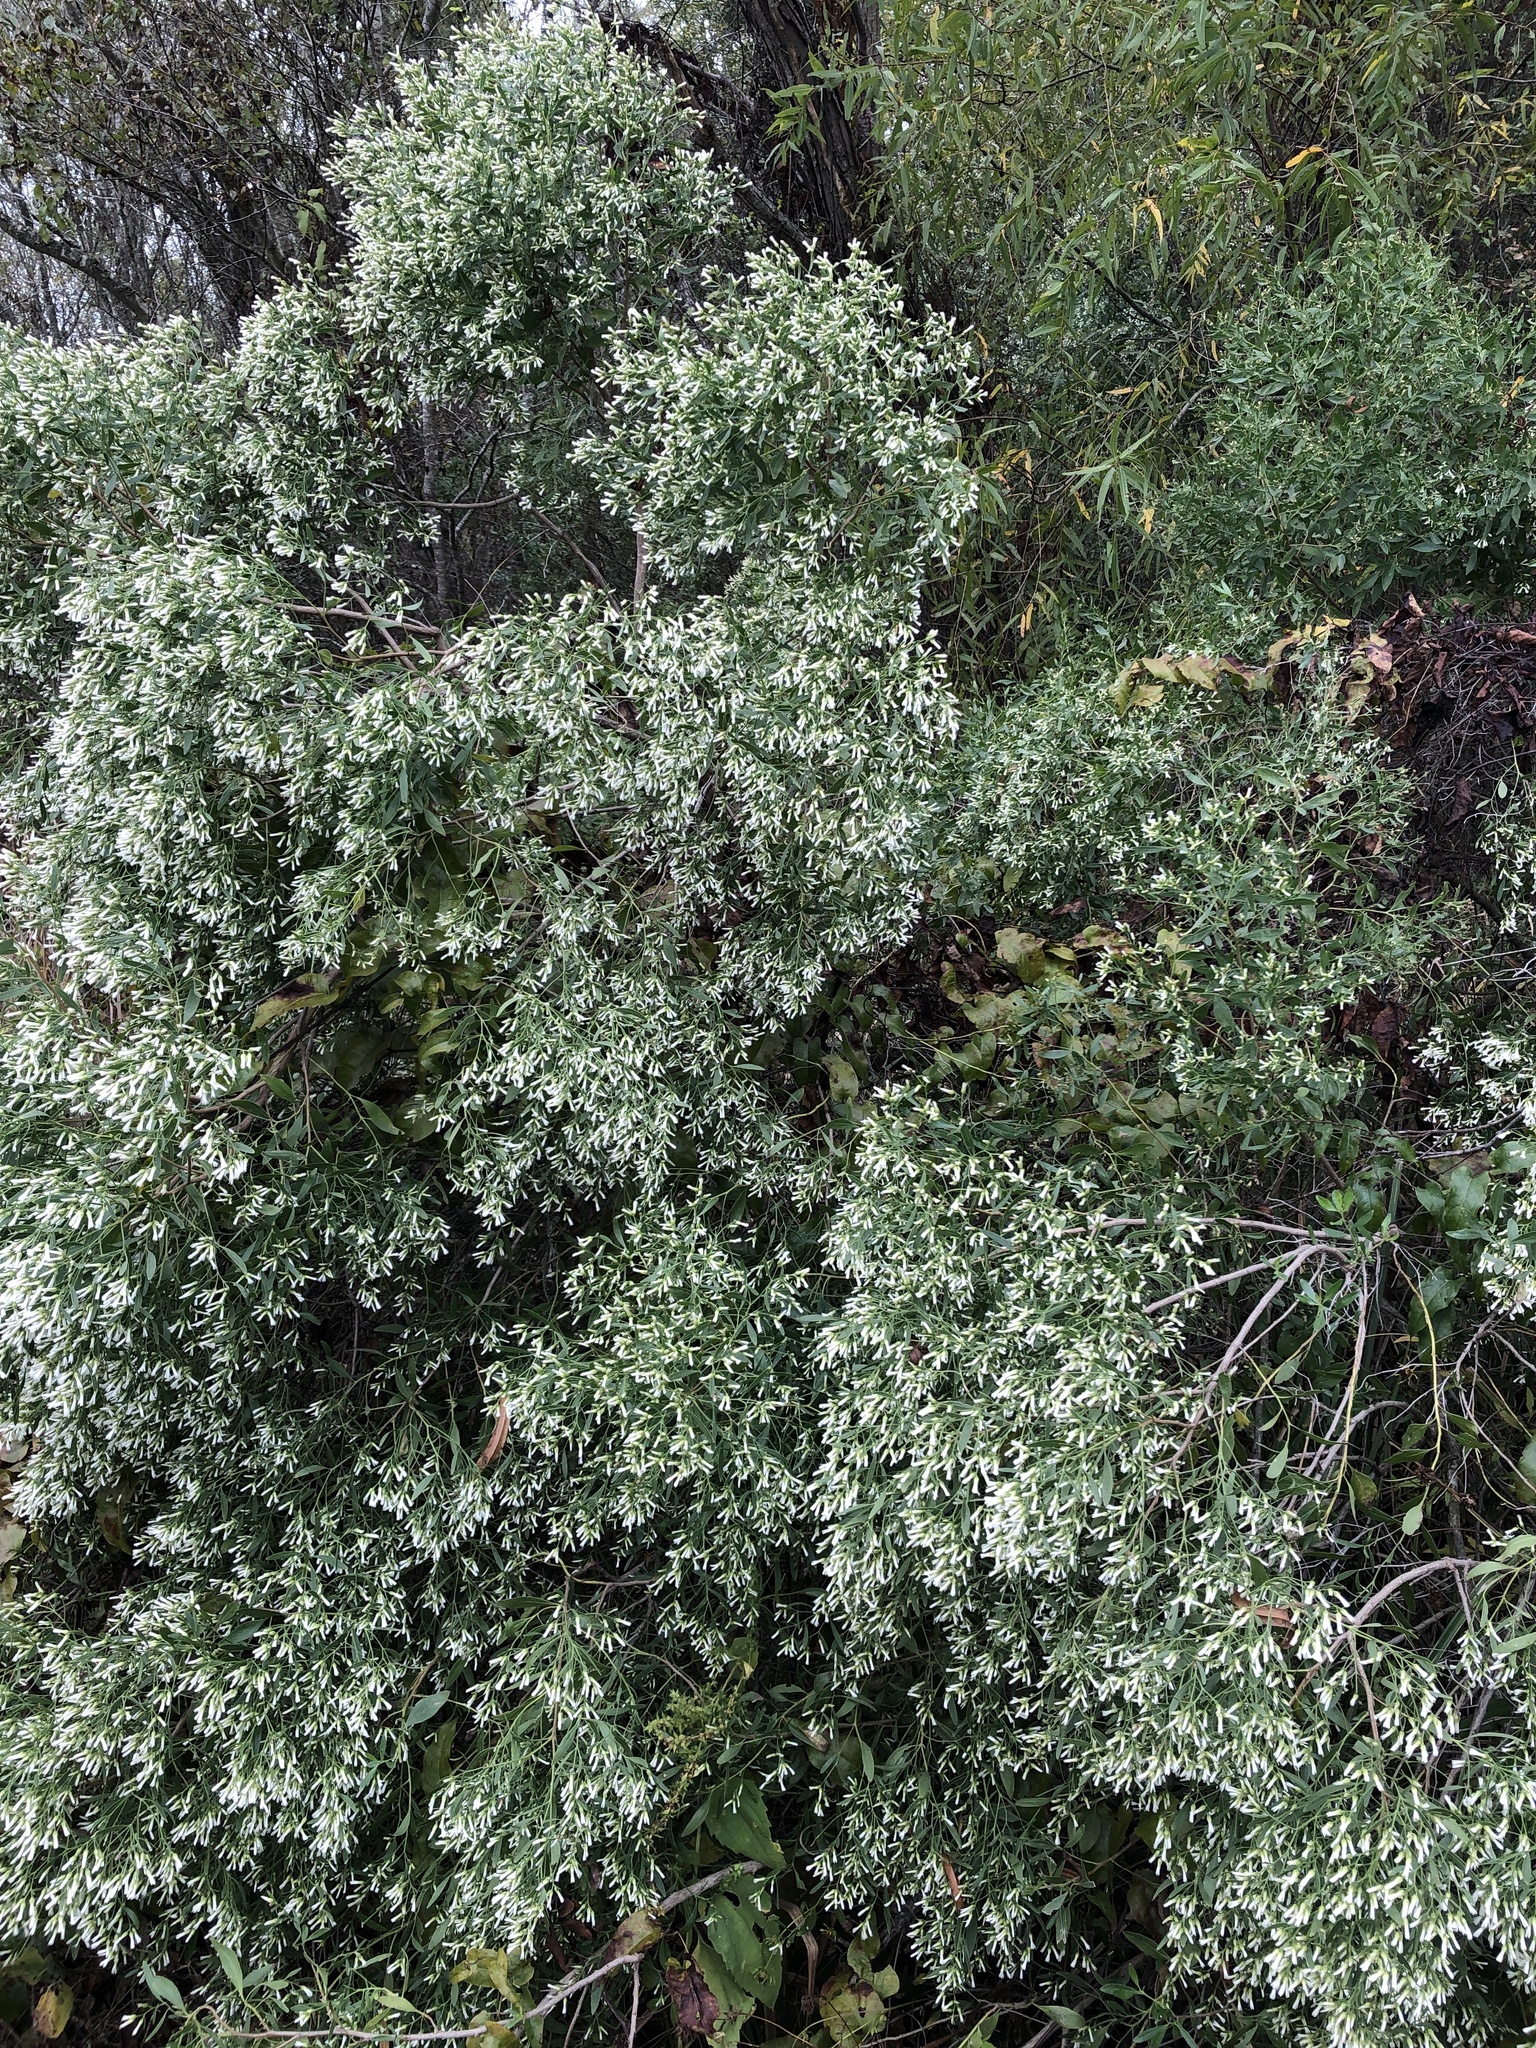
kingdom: Plantae
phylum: Tracheophyta
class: Magnoliopsida
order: Asterales
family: Asteraceae
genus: Baccharis
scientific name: Baccharis halimifolia
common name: Eastern baccharis
